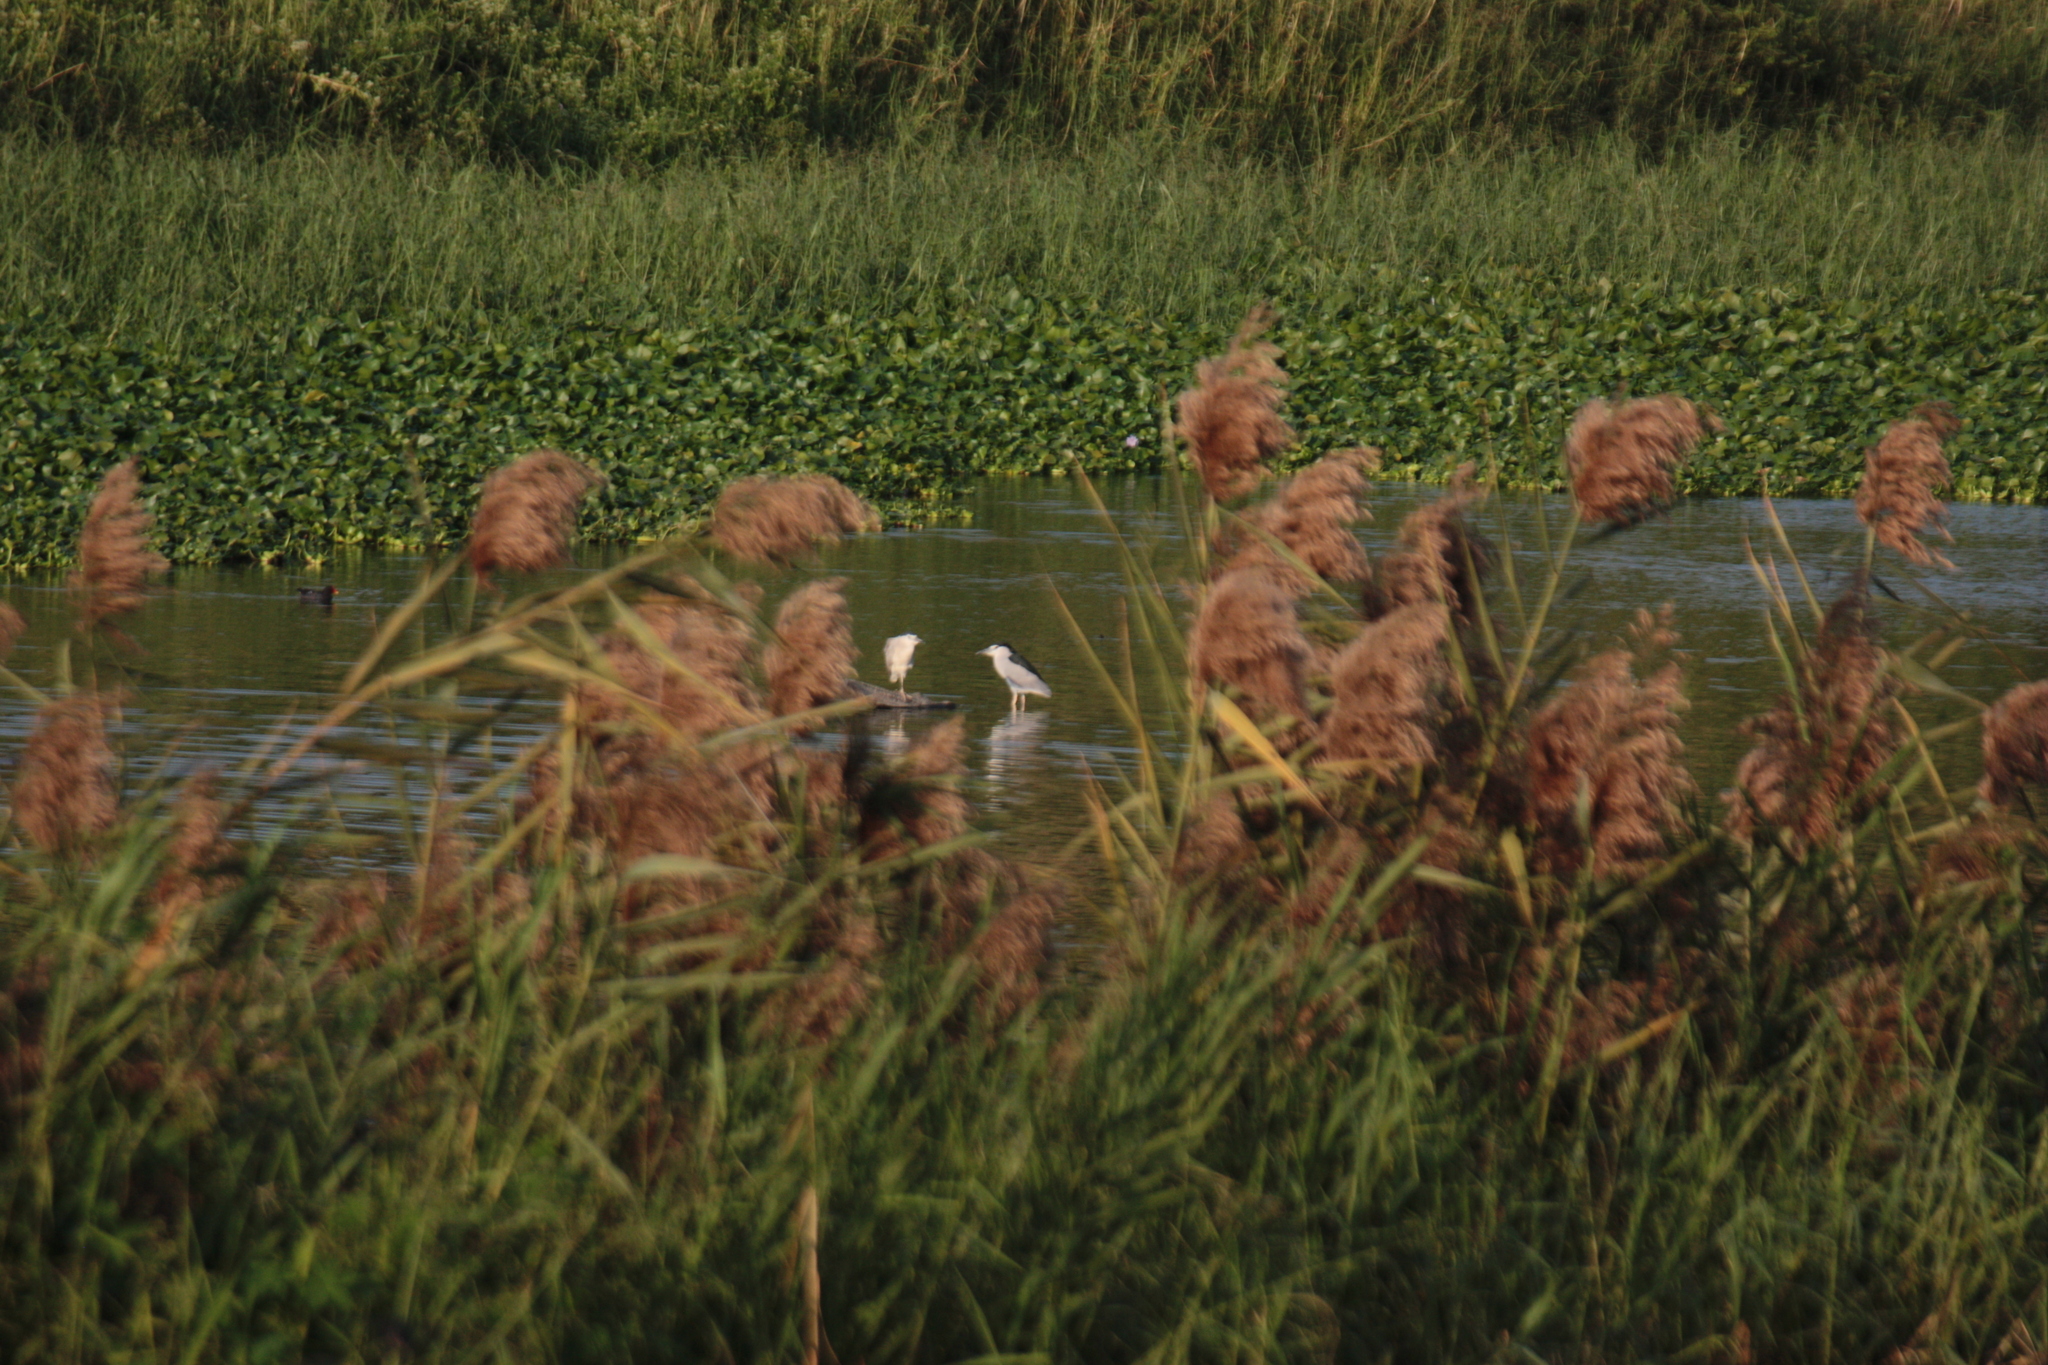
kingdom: Animalia
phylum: Chordata
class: Aves
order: Pelecaniformes
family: Ardeidae
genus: Nycticorax
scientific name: Nycticorax nycticorax
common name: Black-crowned night heron
